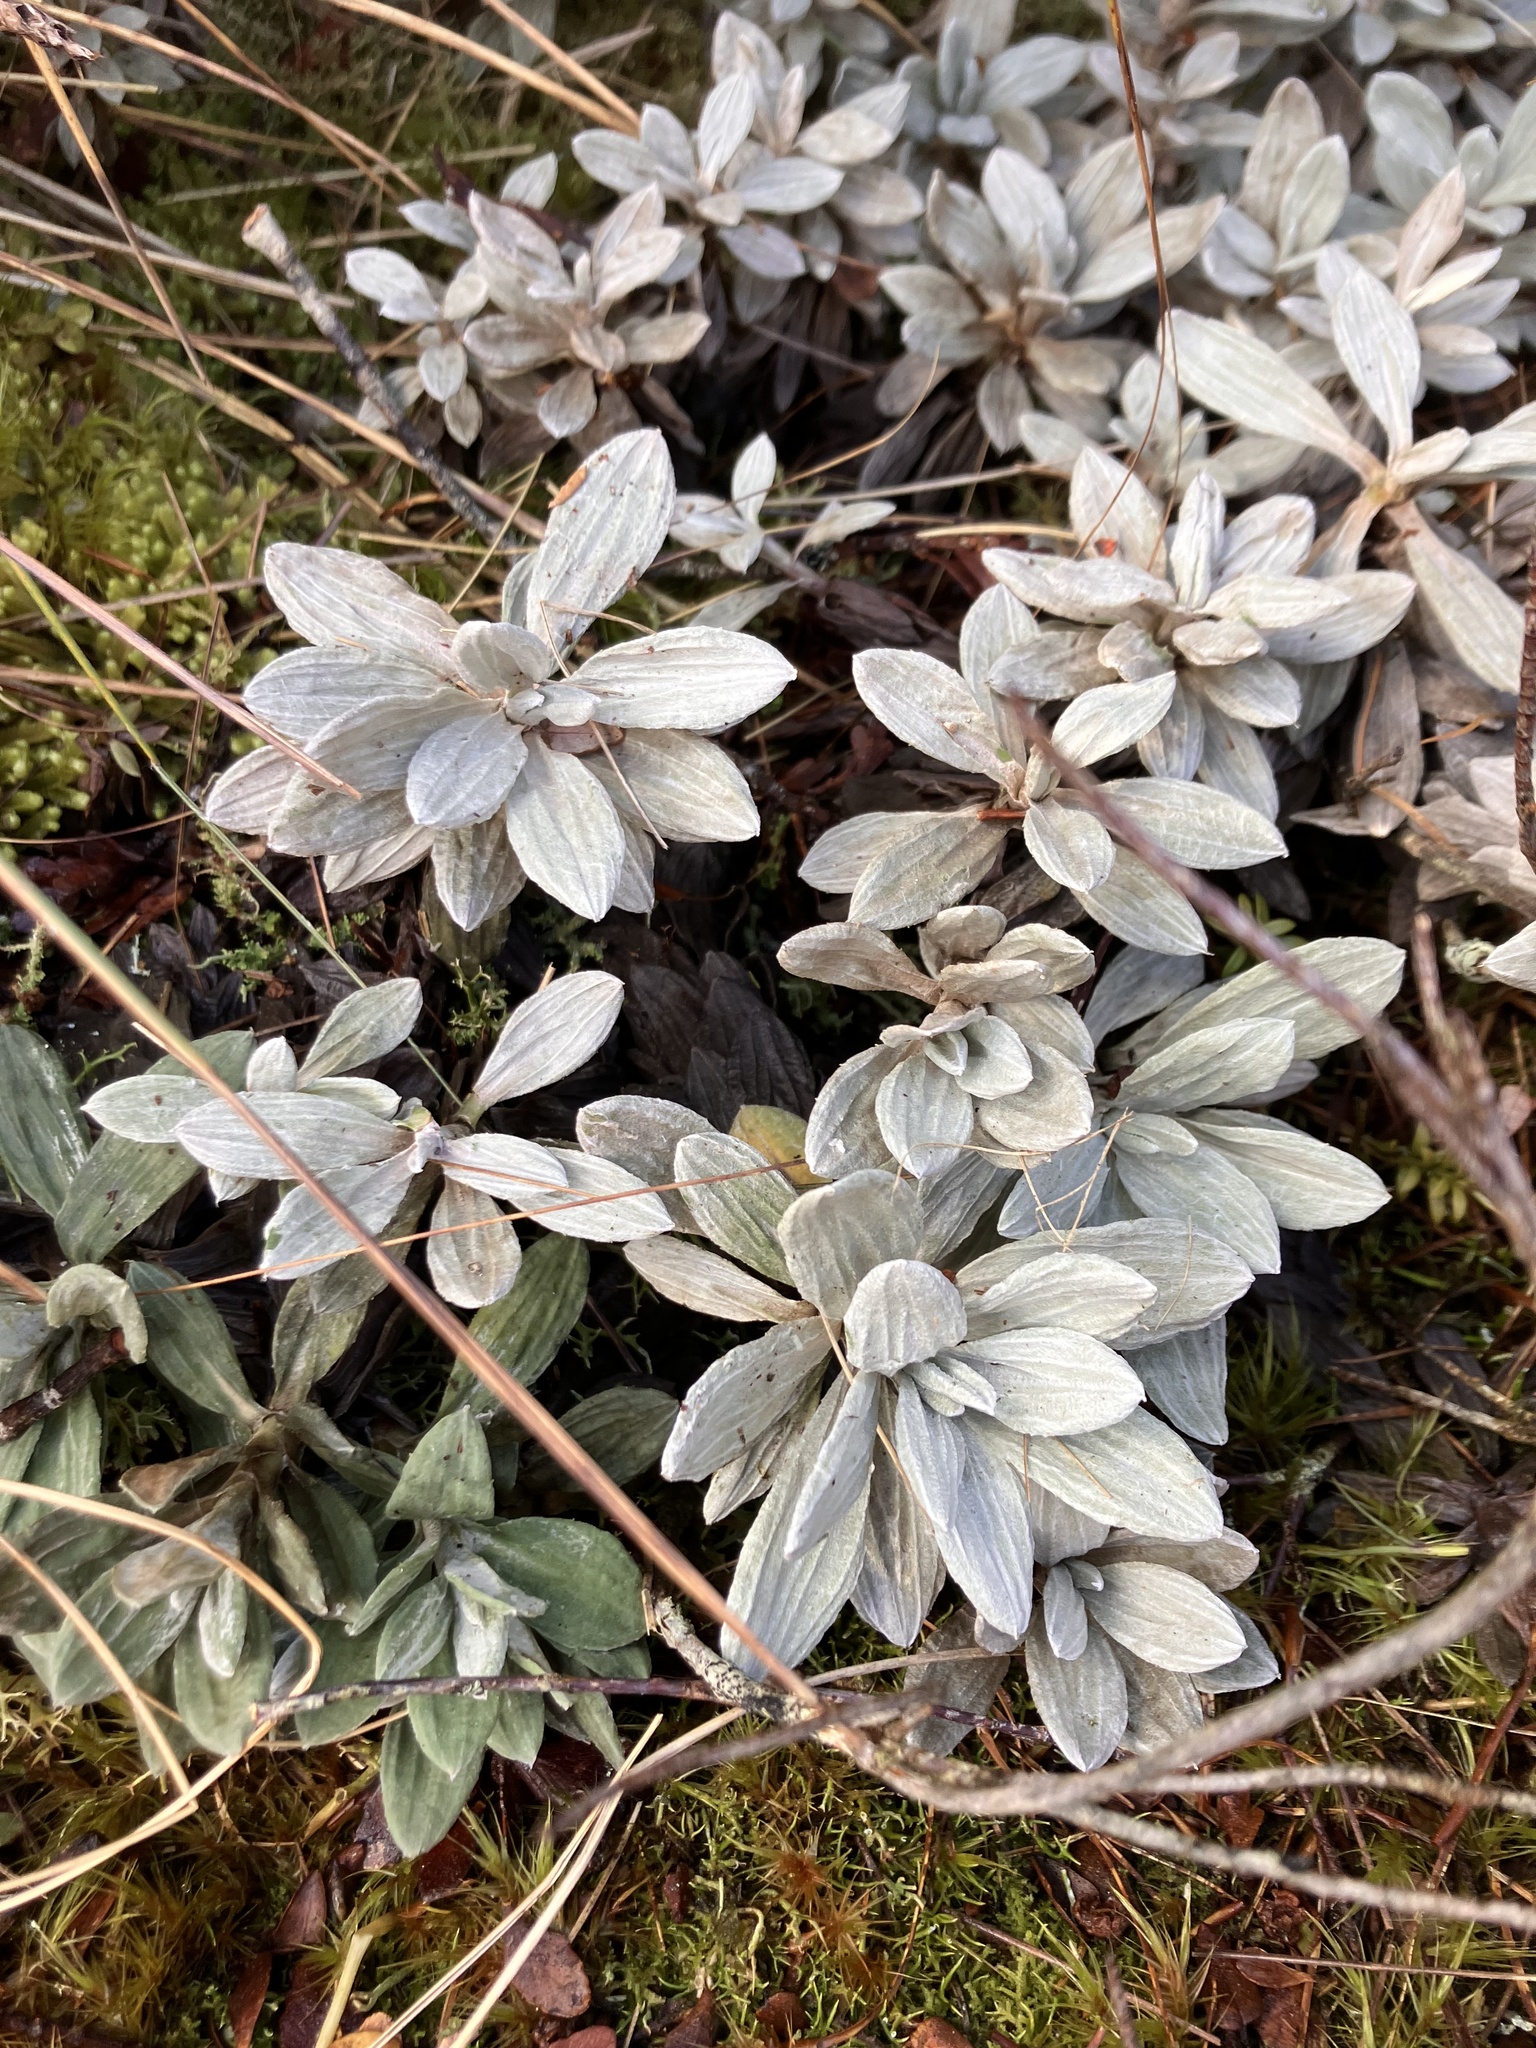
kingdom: Plantae
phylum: Tracheophyta
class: Magnoliopsida
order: Asterales
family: Asteraceae
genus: Celmisia
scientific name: Celmisia incana
